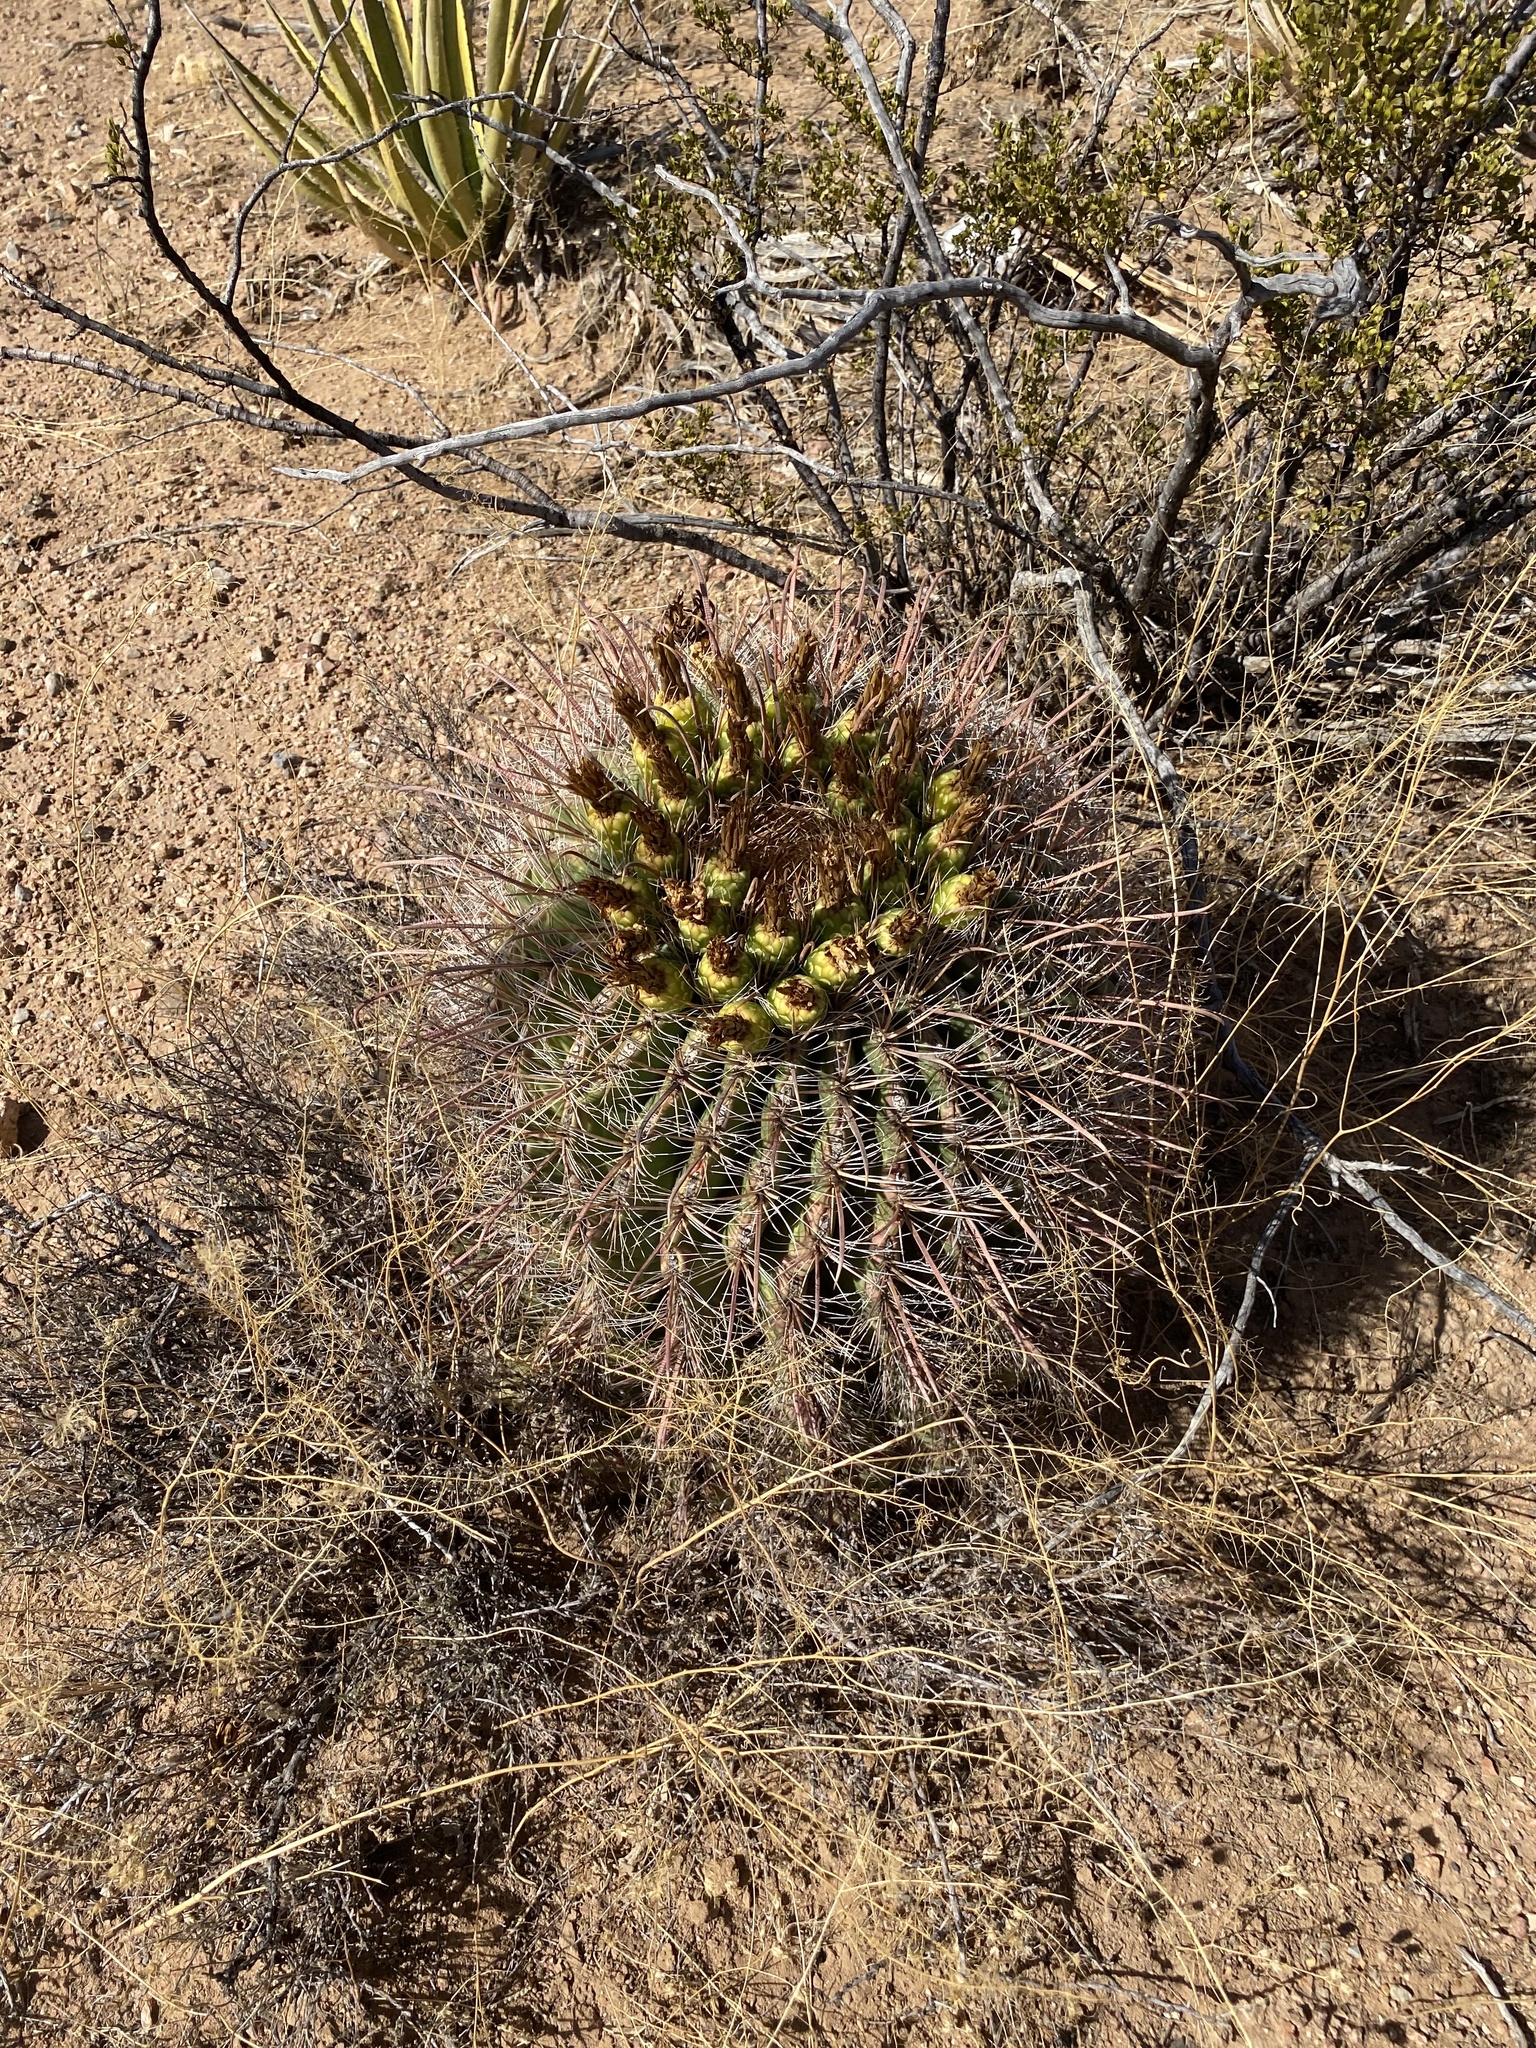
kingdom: Plantae
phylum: Tracheophyta
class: Magnoliopsida
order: Caryophyllales
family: Cactaceae
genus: Ferocactus
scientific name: Ferocactus wislizeni
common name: Candy barrel cactus
